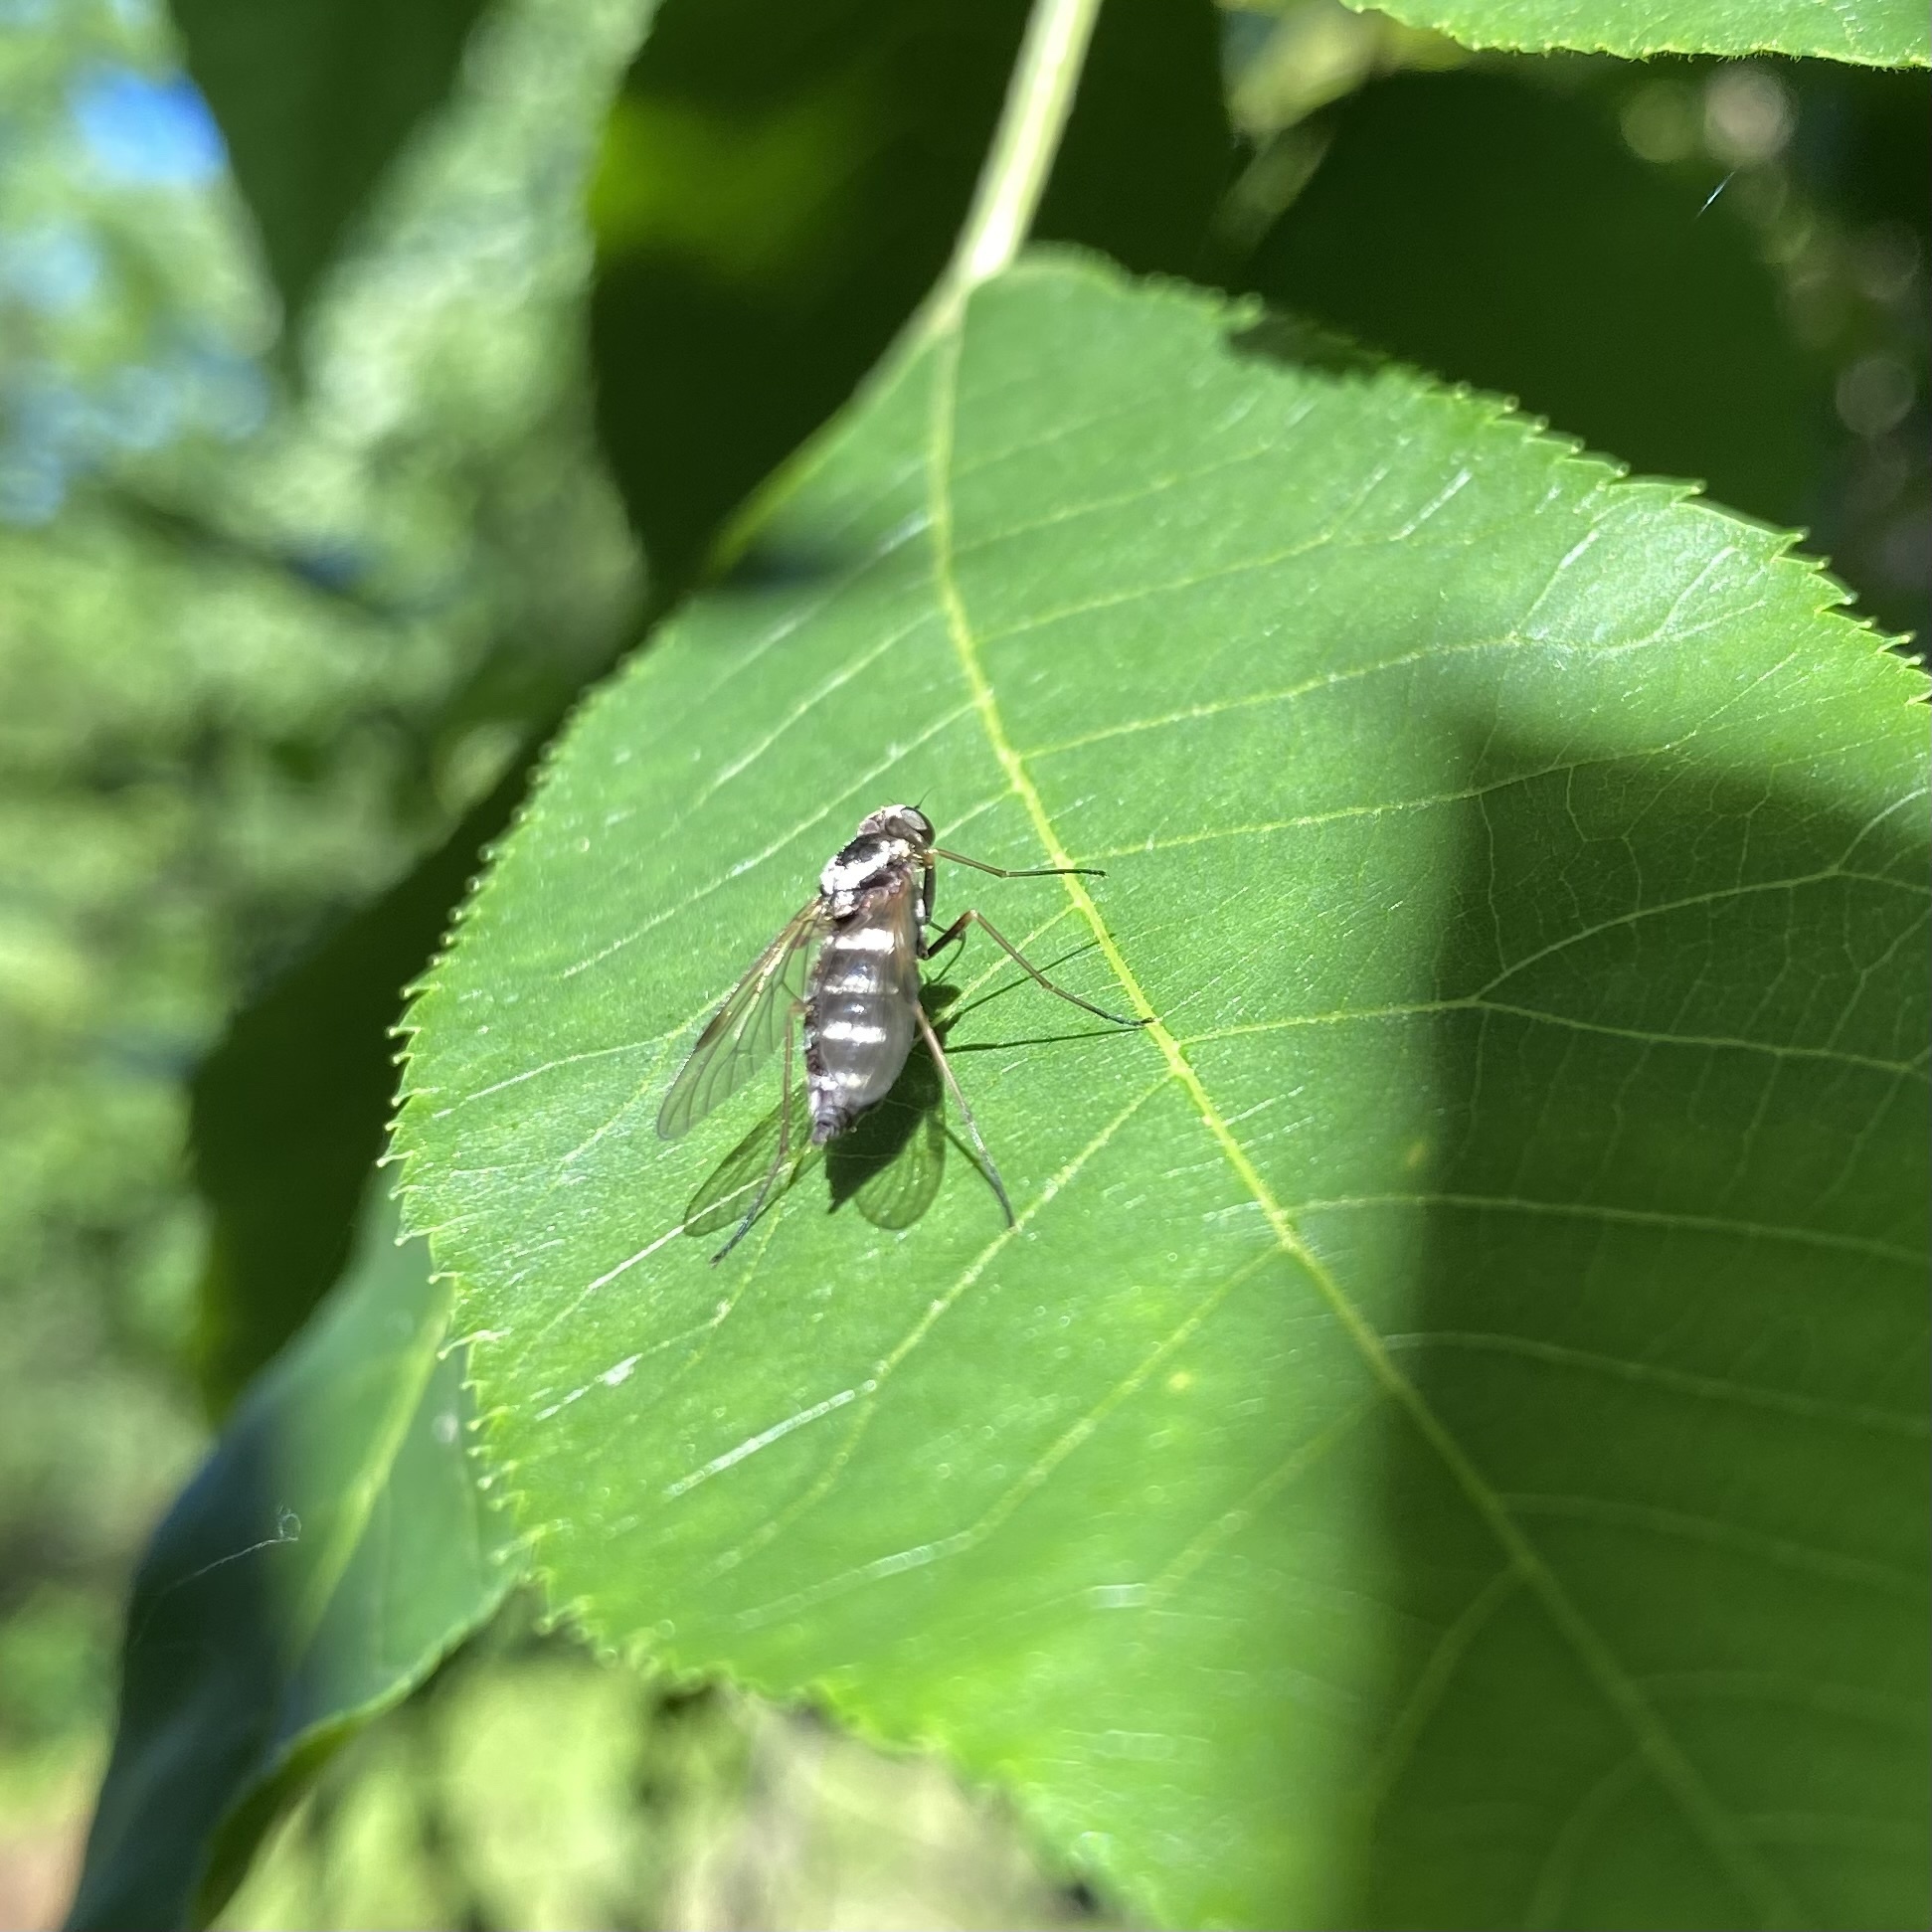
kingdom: Animalia
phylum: Arthropoda
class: Insecta
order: Diptera
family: Rhagionidae
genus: Chrysopilus
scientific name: Chrysopilus fasciatus
